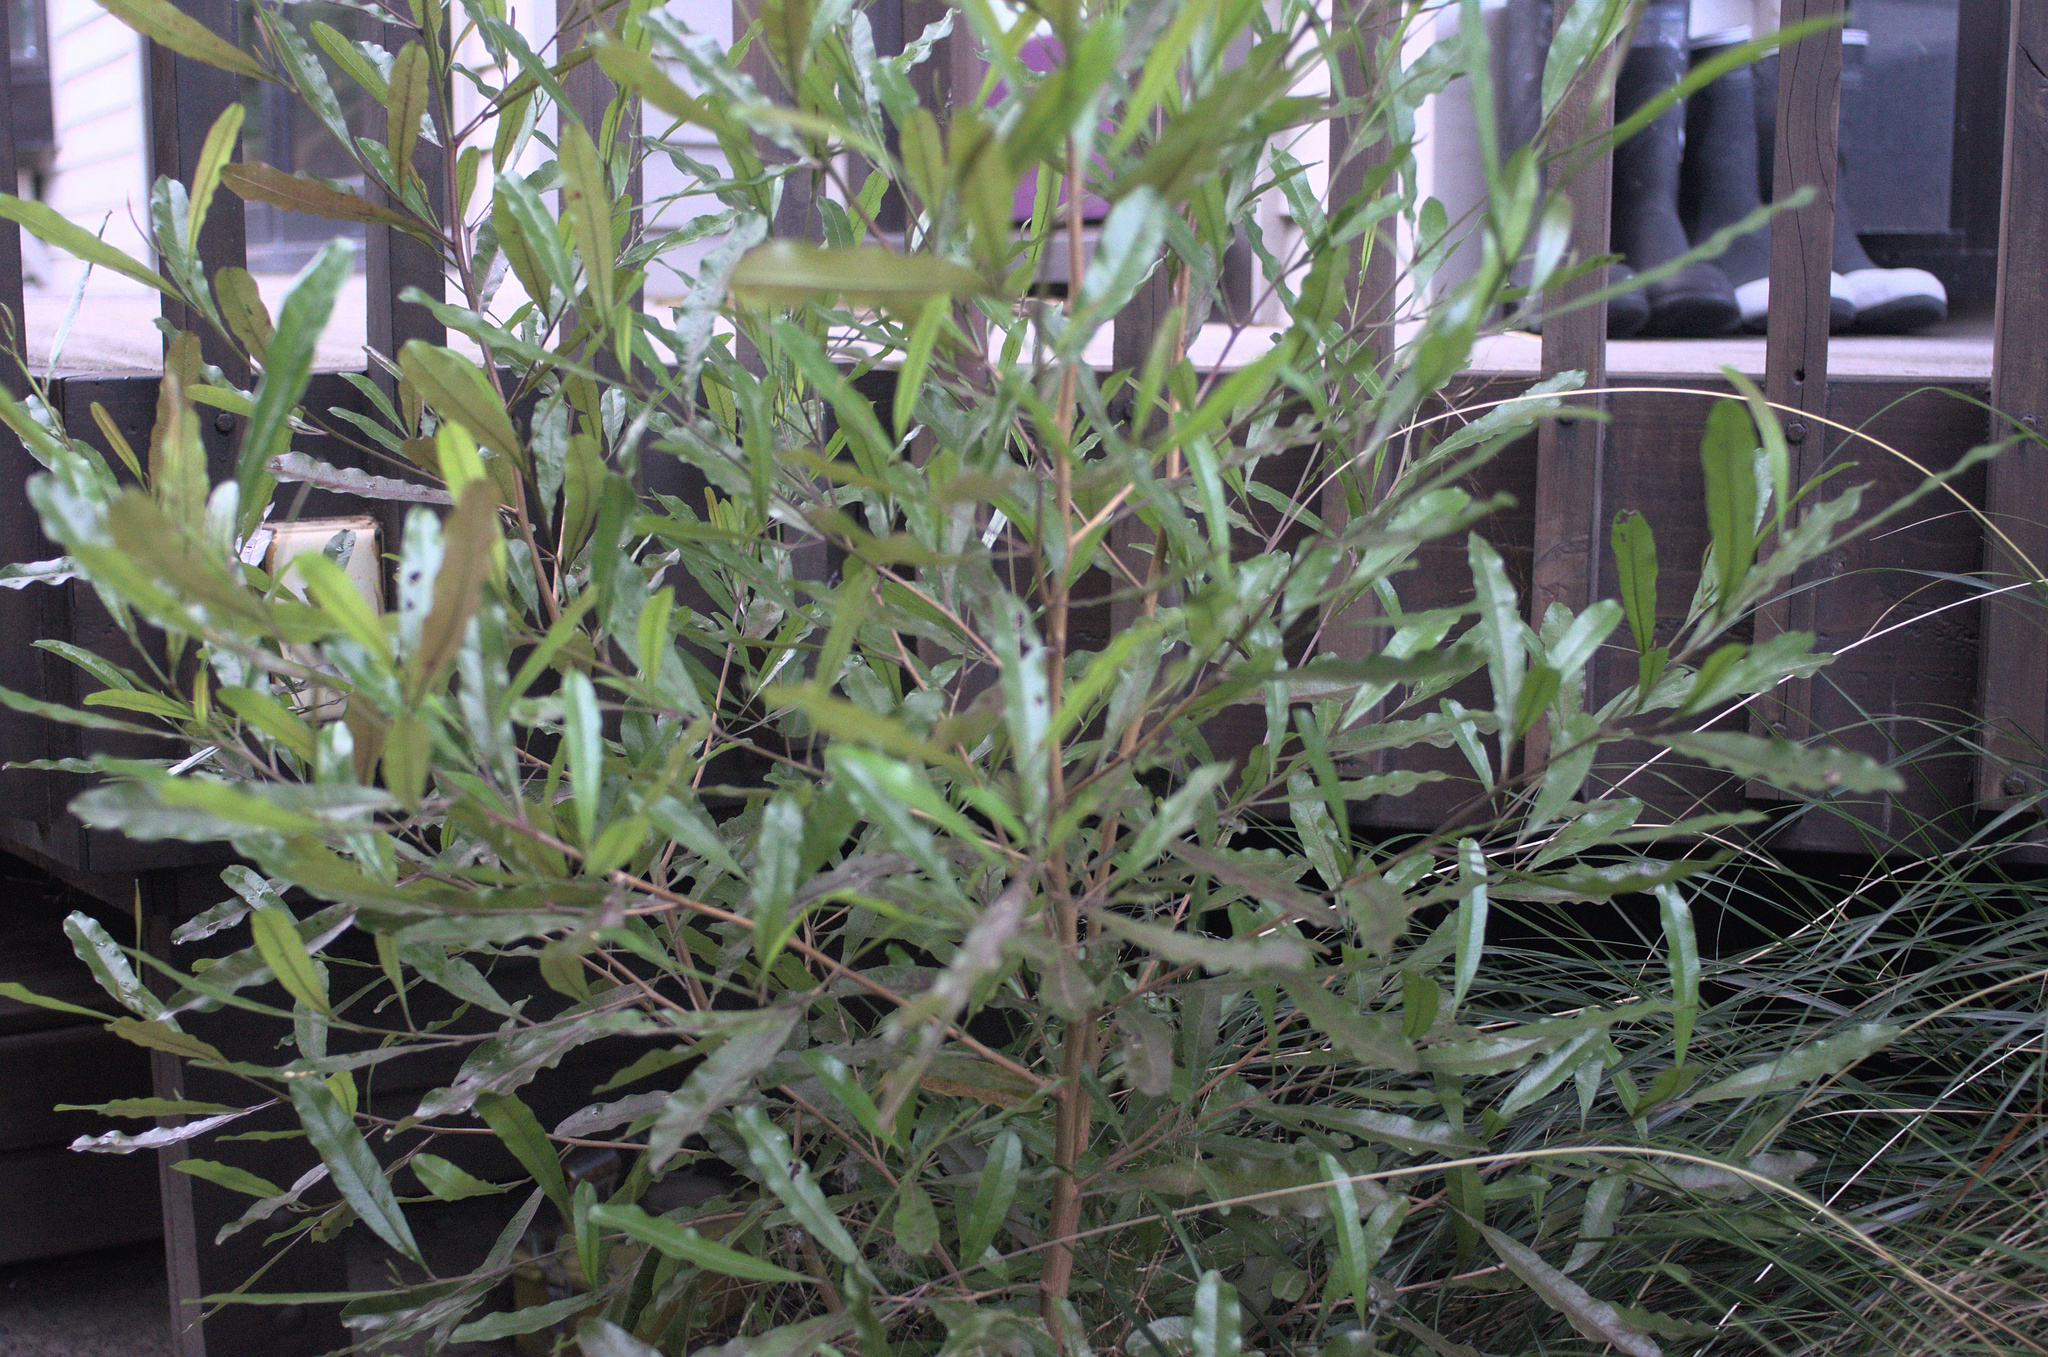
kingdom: Plantae
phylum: Tracheophyta
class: Magnoliopsida
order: Sapindales
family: Sapindaceae
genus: Dodonaea
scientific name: Dodonaea viscosa
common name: Hopbush
